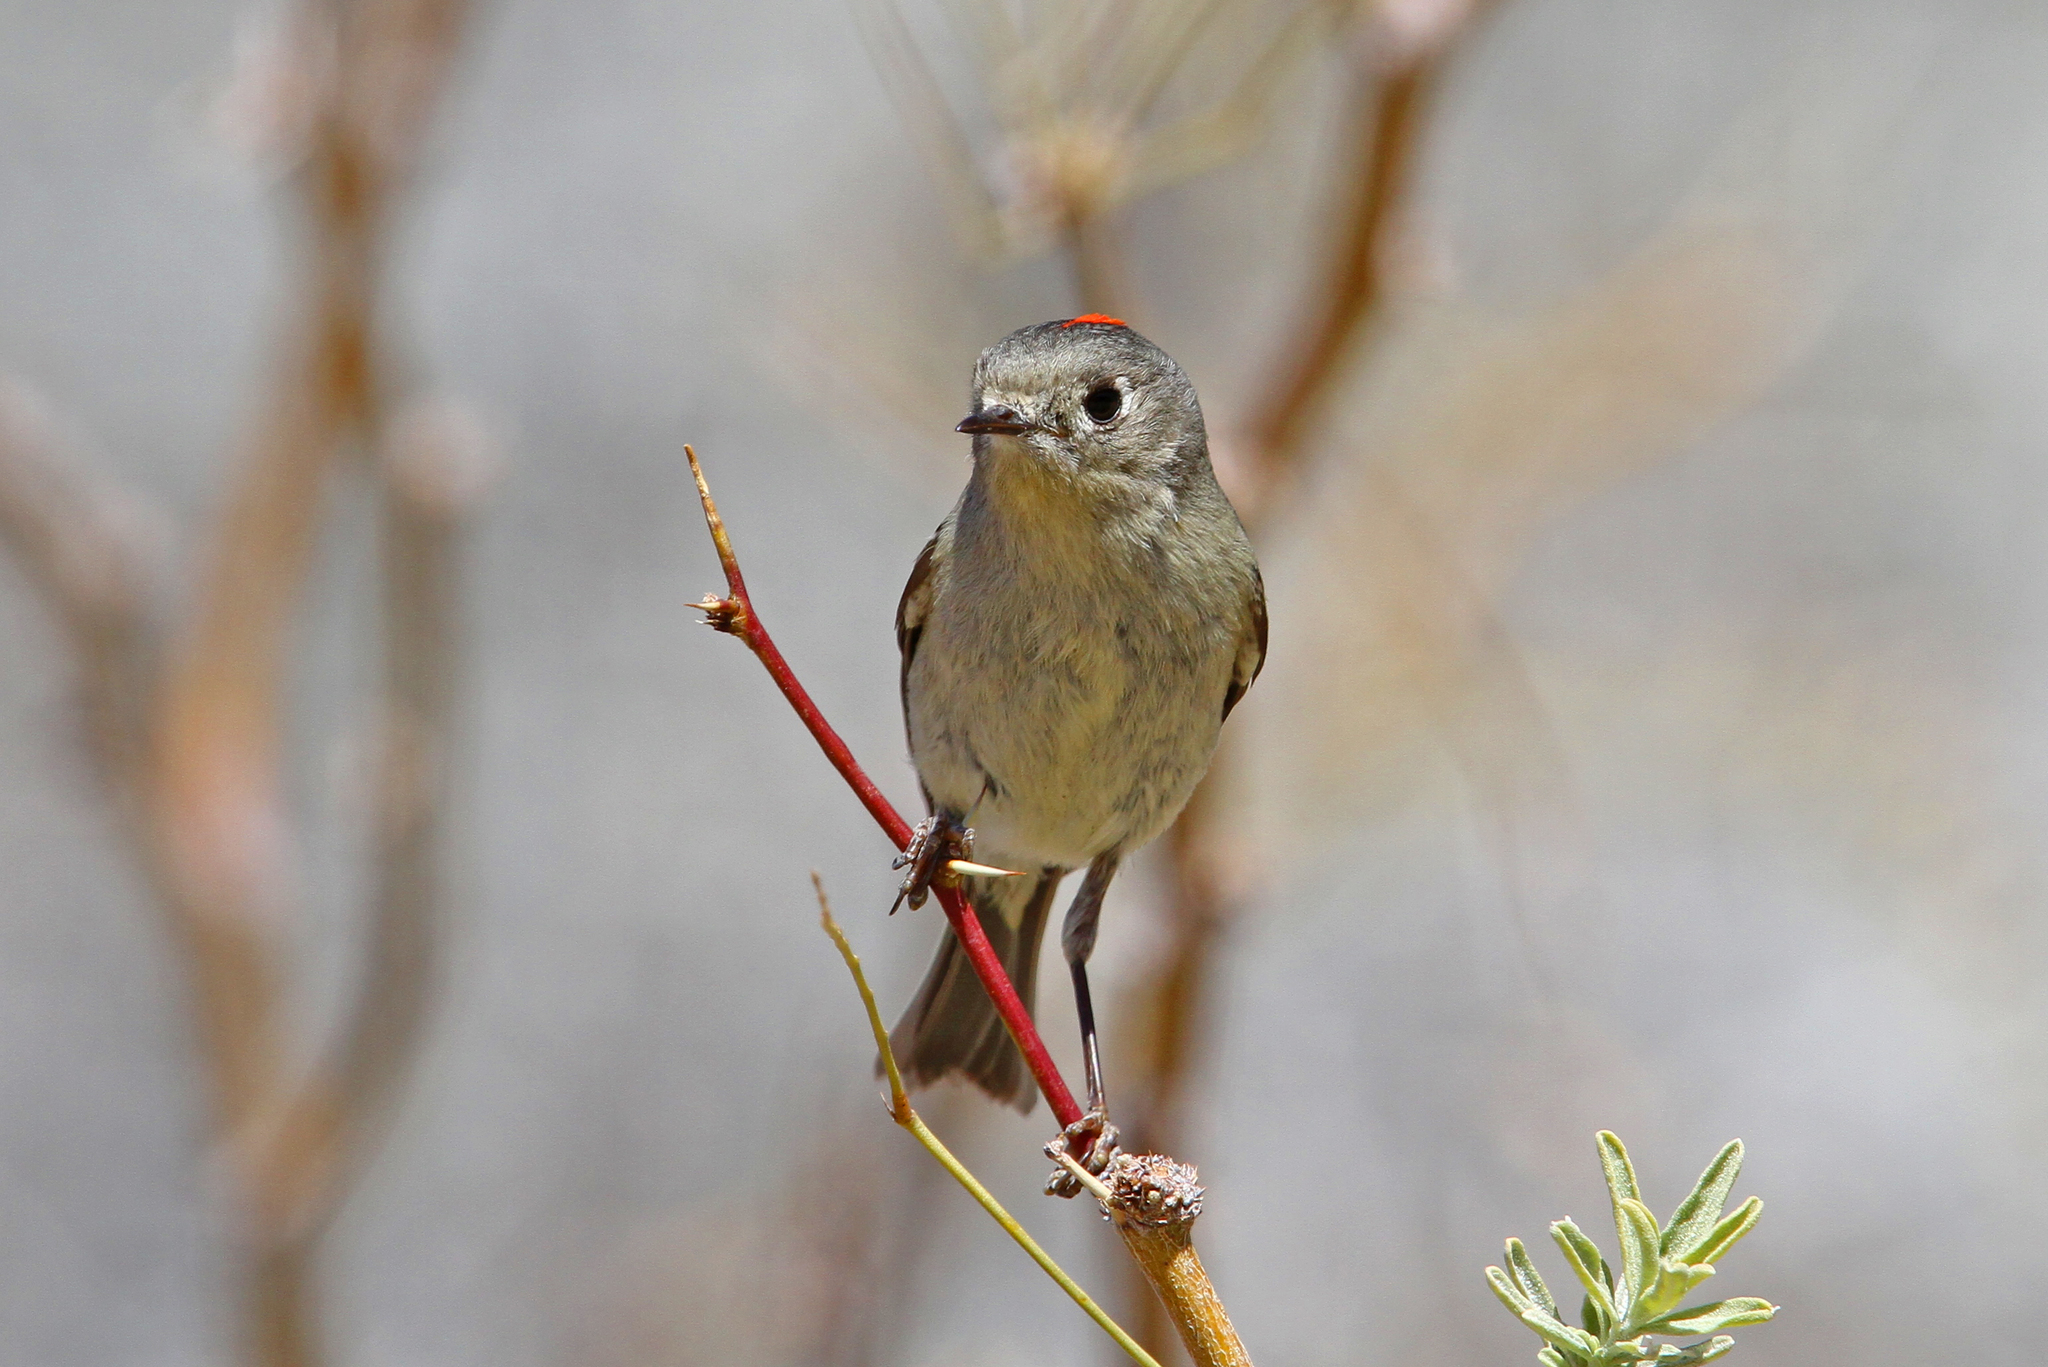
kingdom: Animalia
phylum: Chordata
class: Aves
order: Passeriformes
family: Regulidae
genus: Regulus
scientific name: Regulus calendula
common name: Ruby-crowned kinglet
